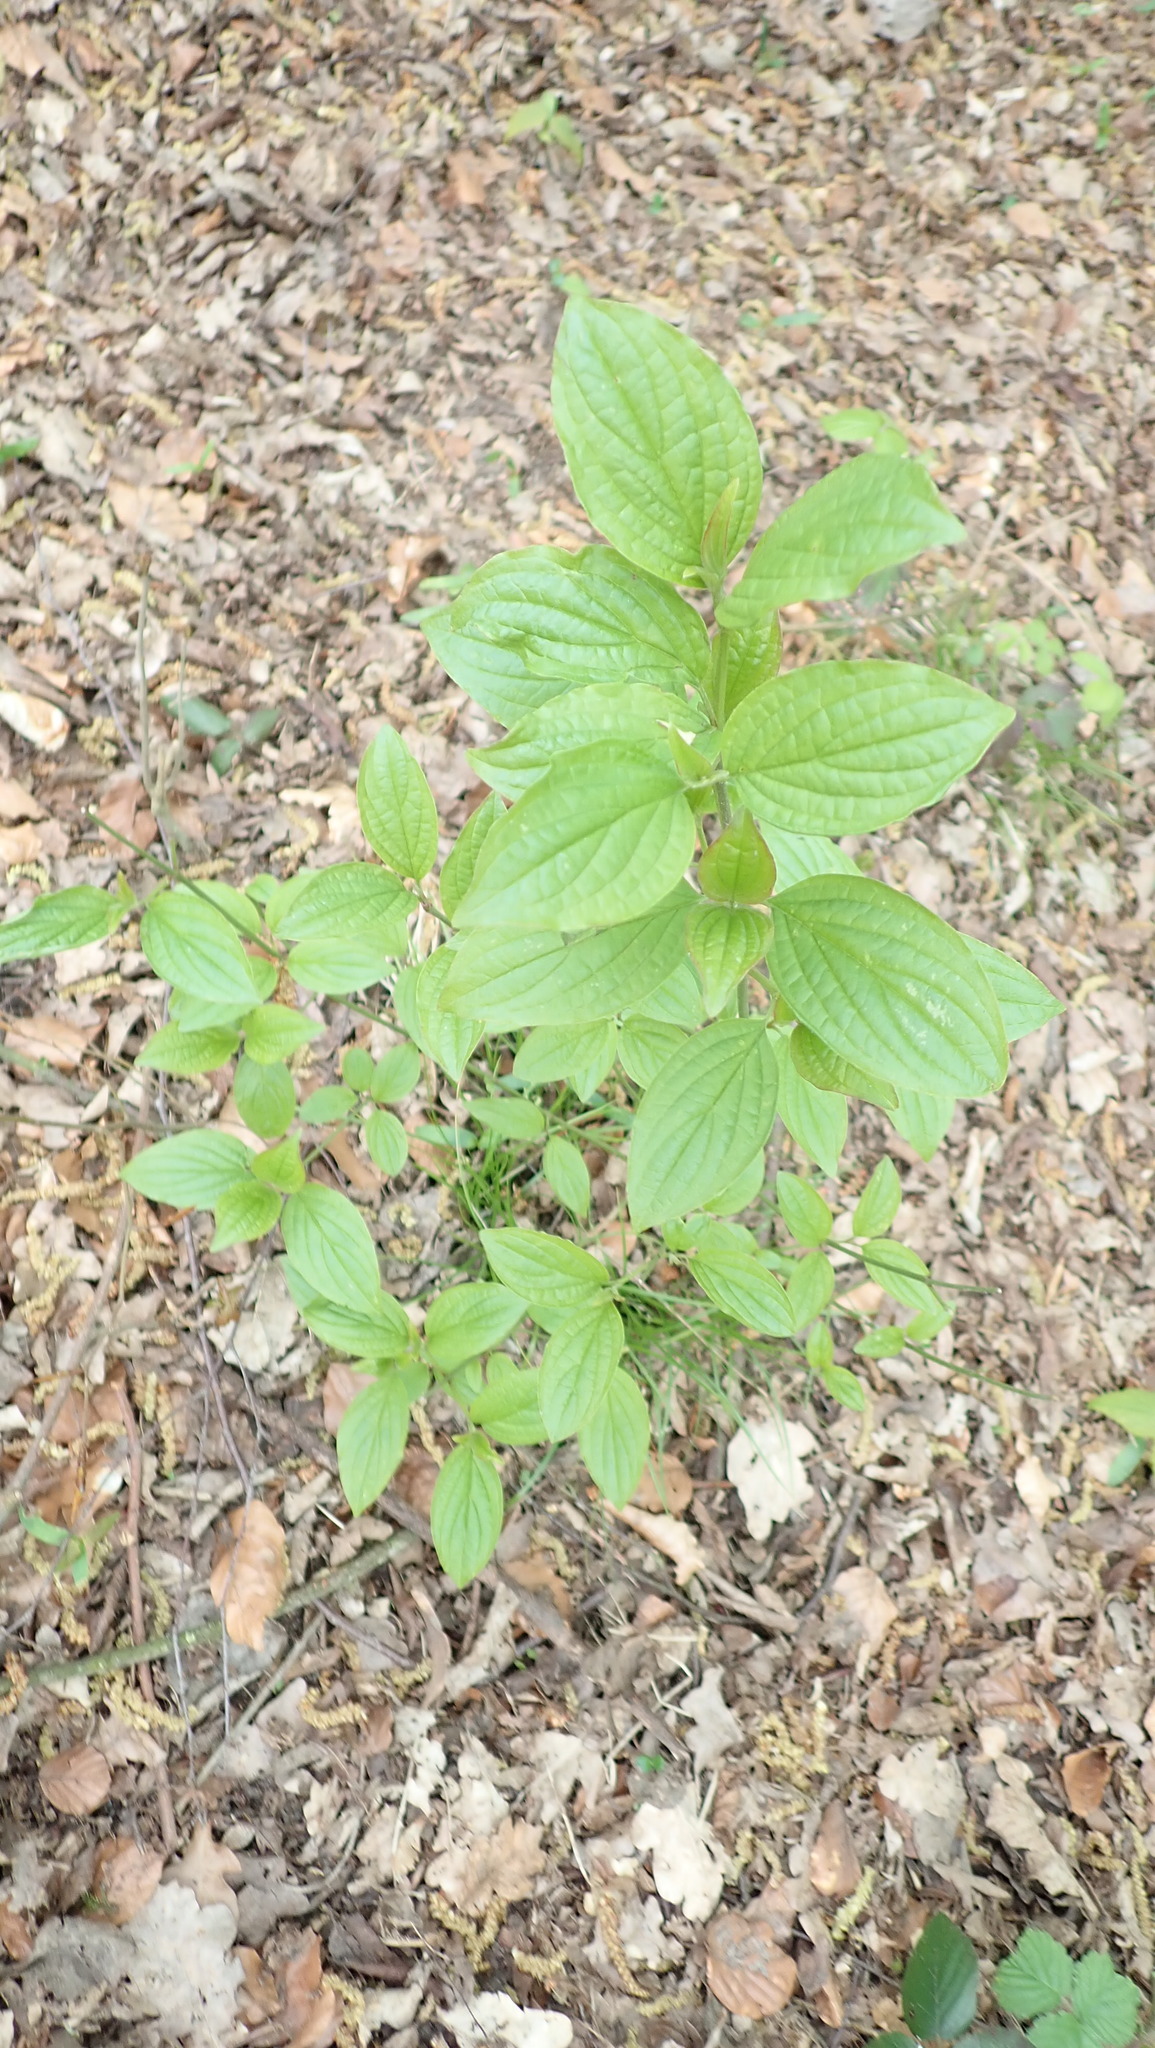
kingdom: Plantae
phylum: Tracheophyta
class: Magnoliopsida
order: Cornales
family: Cornaceae
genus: Cornus
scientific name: Cornus sanguinea
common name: Dogwood
